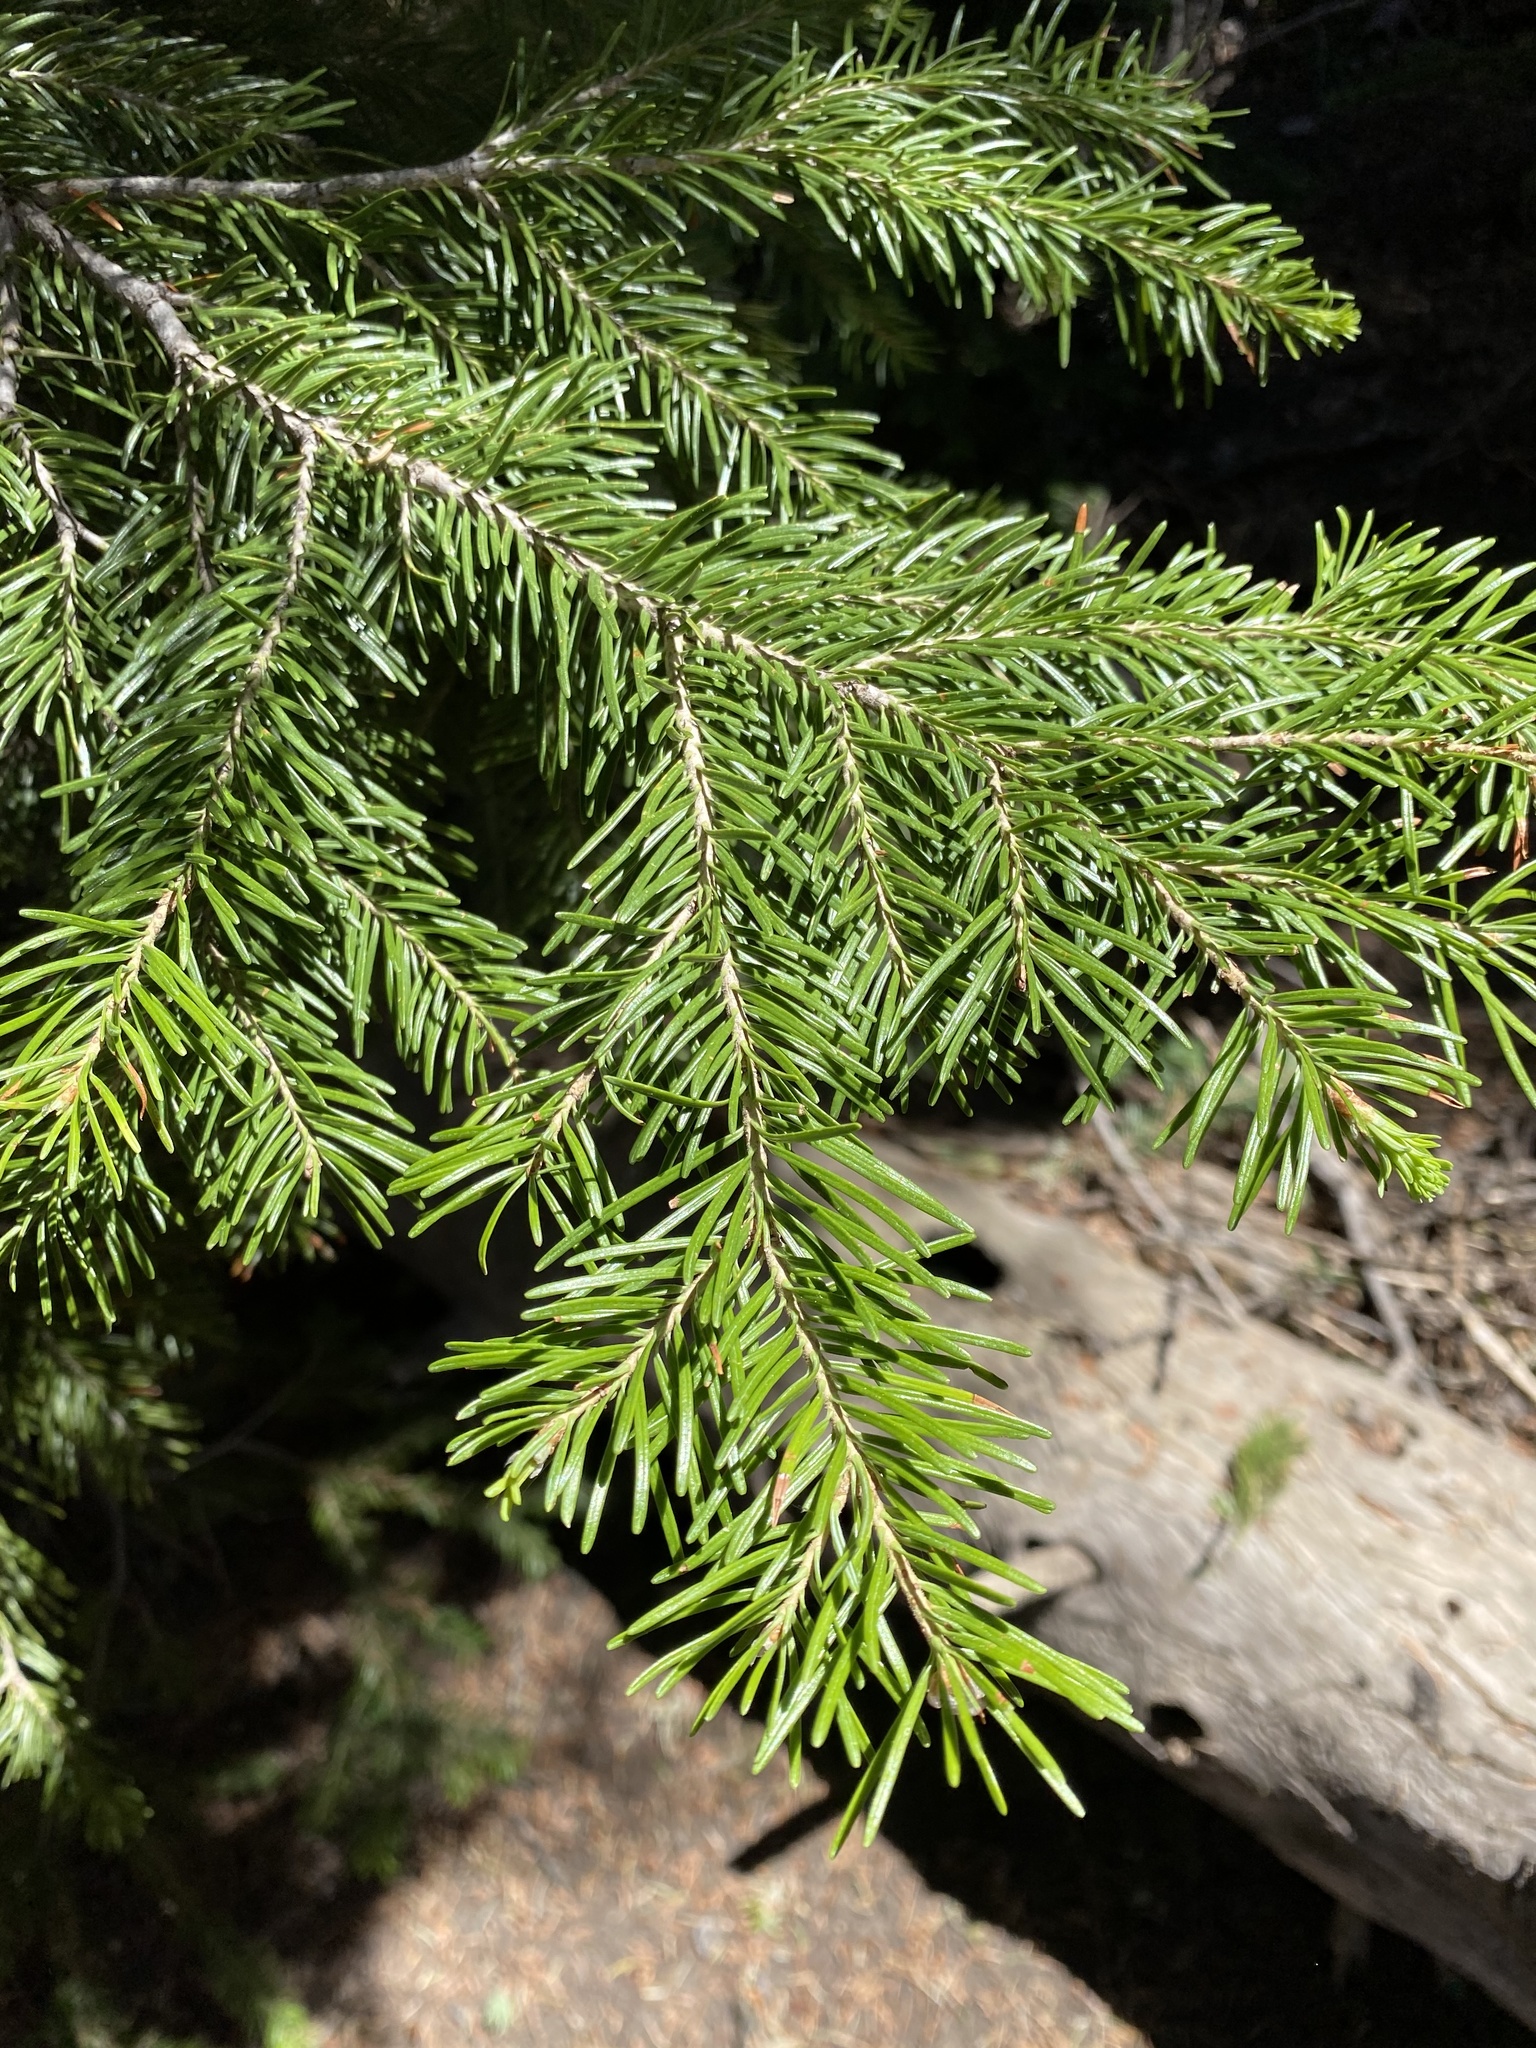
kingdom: Plantae
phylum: Tracheophyta
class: Pinopsida
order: Pinales
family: Pinaceae
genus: Abies
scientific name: Abies lasiocarpa
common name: Subalpine fir
